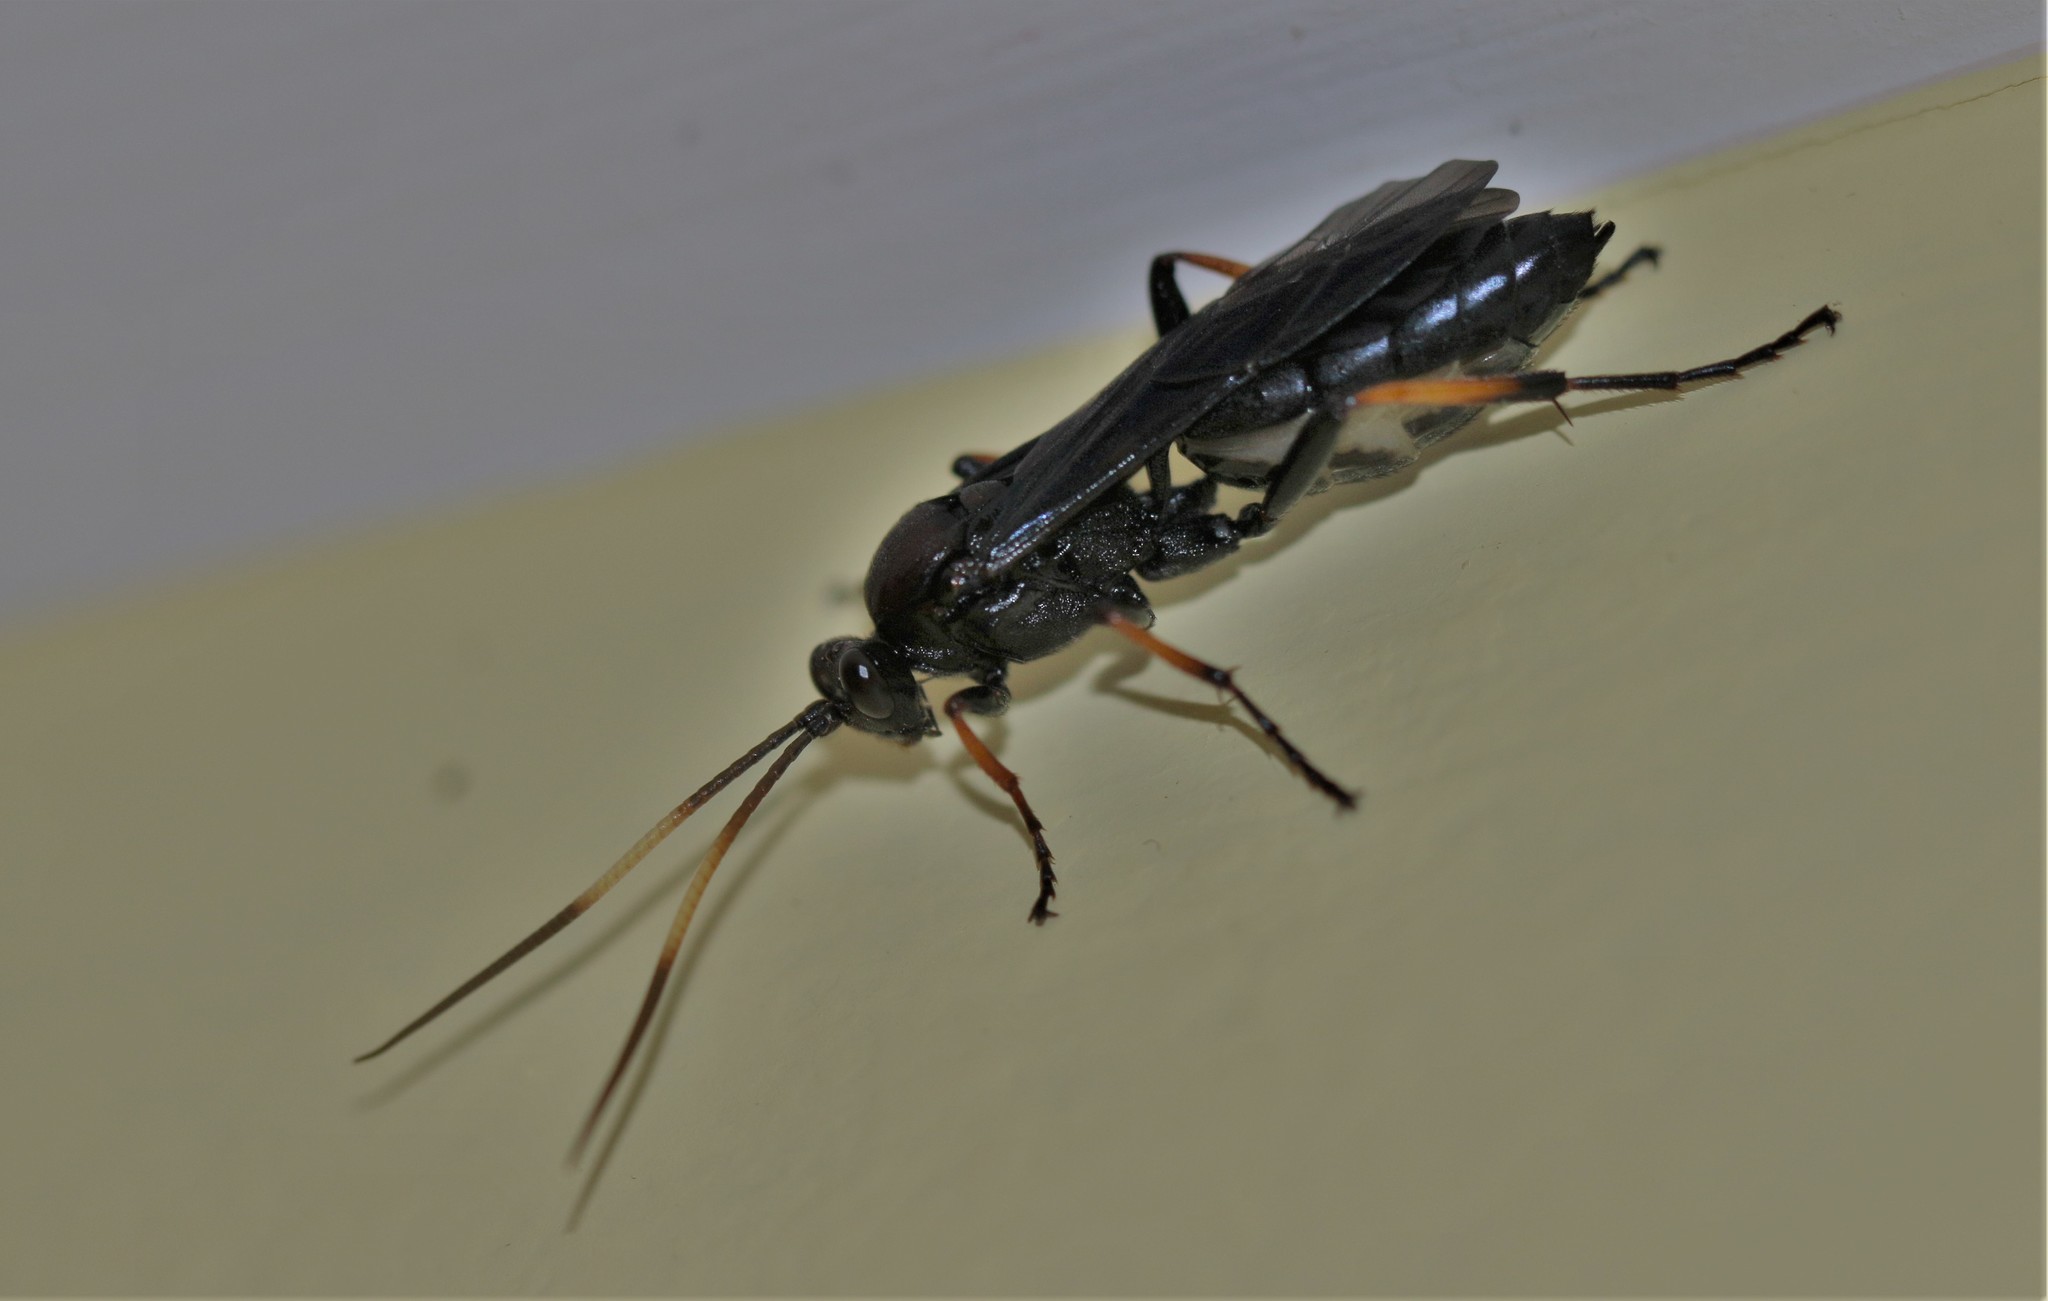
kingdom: Animalia
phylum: Arthropoda
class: Insecta
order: Hymenoptera
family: Ichneumonidae
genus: Ichneumon
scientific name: Ichneumon centrator
